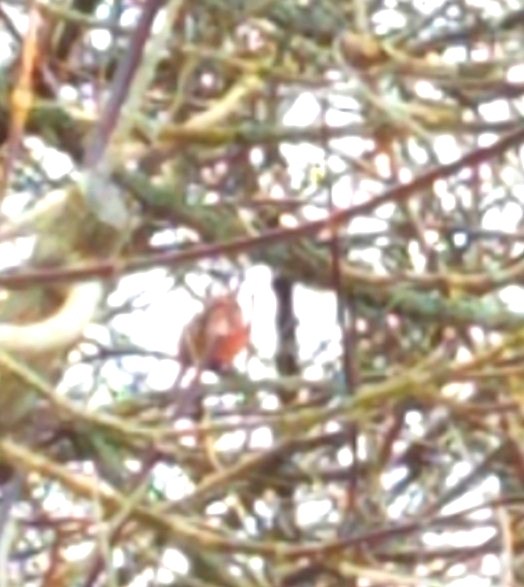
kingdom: Animalia
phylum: Chordata
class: Aves
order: Passeriformes
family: Cardinalidae
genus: Cardinalis
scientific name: Cardinalis cardinalis
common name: Northern cardinal
